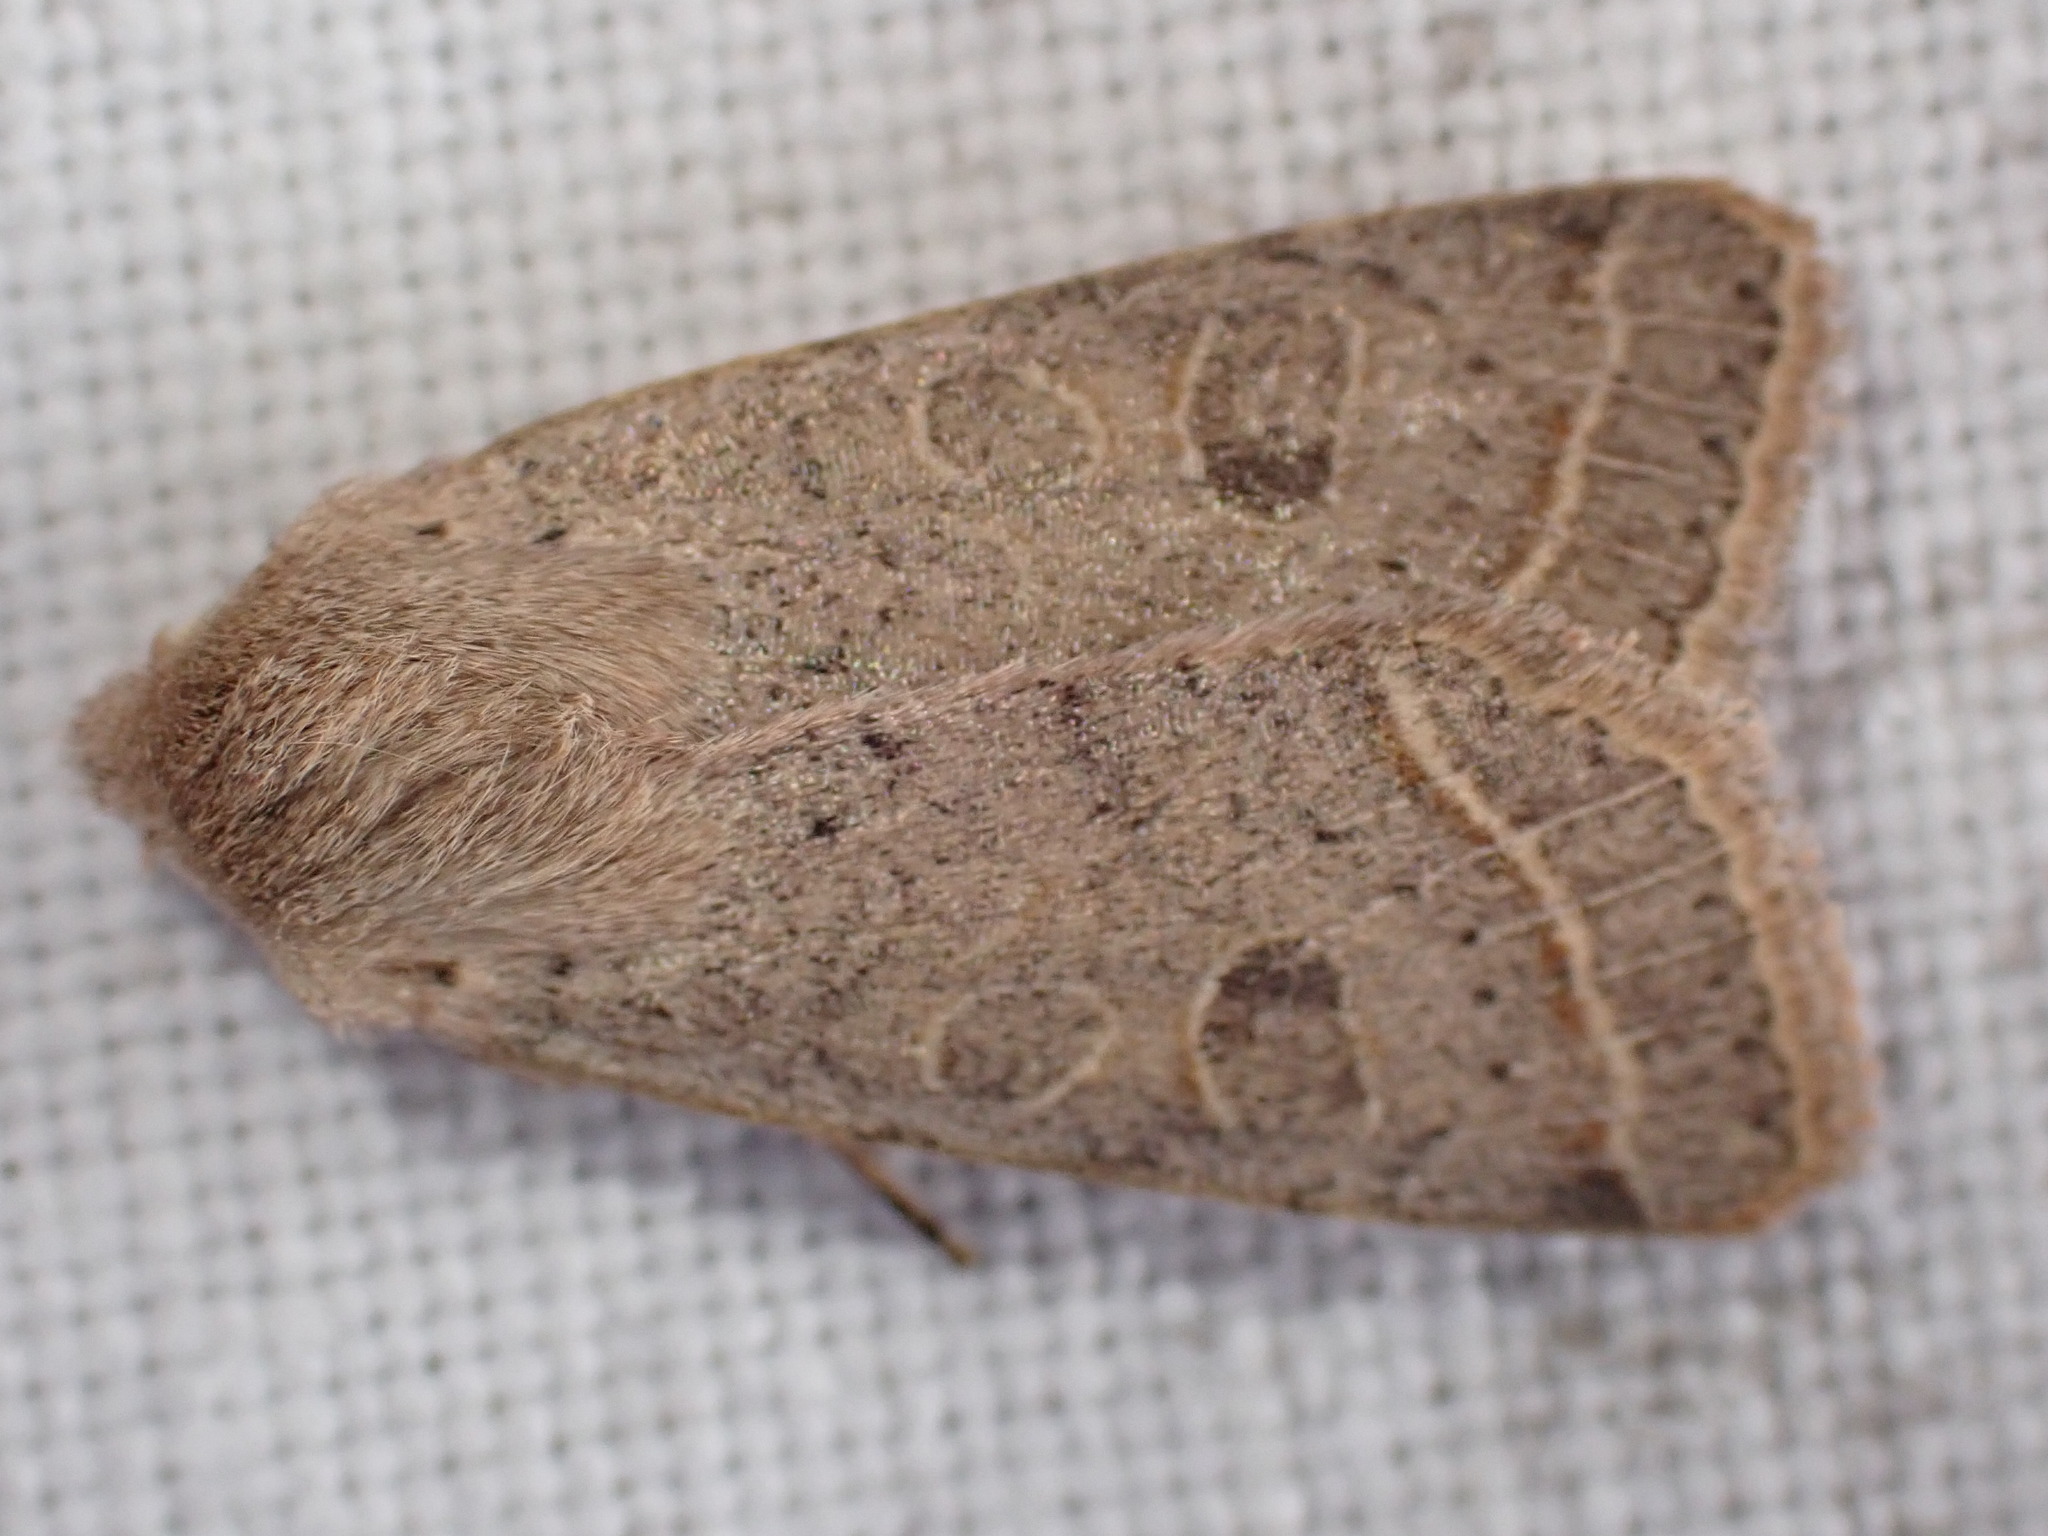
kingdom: Animalia
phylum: Arthropoda
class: Insecta
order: Lepidoptera
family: Noctuidae
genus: Orthosia
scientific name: Orthosia cerasi
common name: Common quaker
